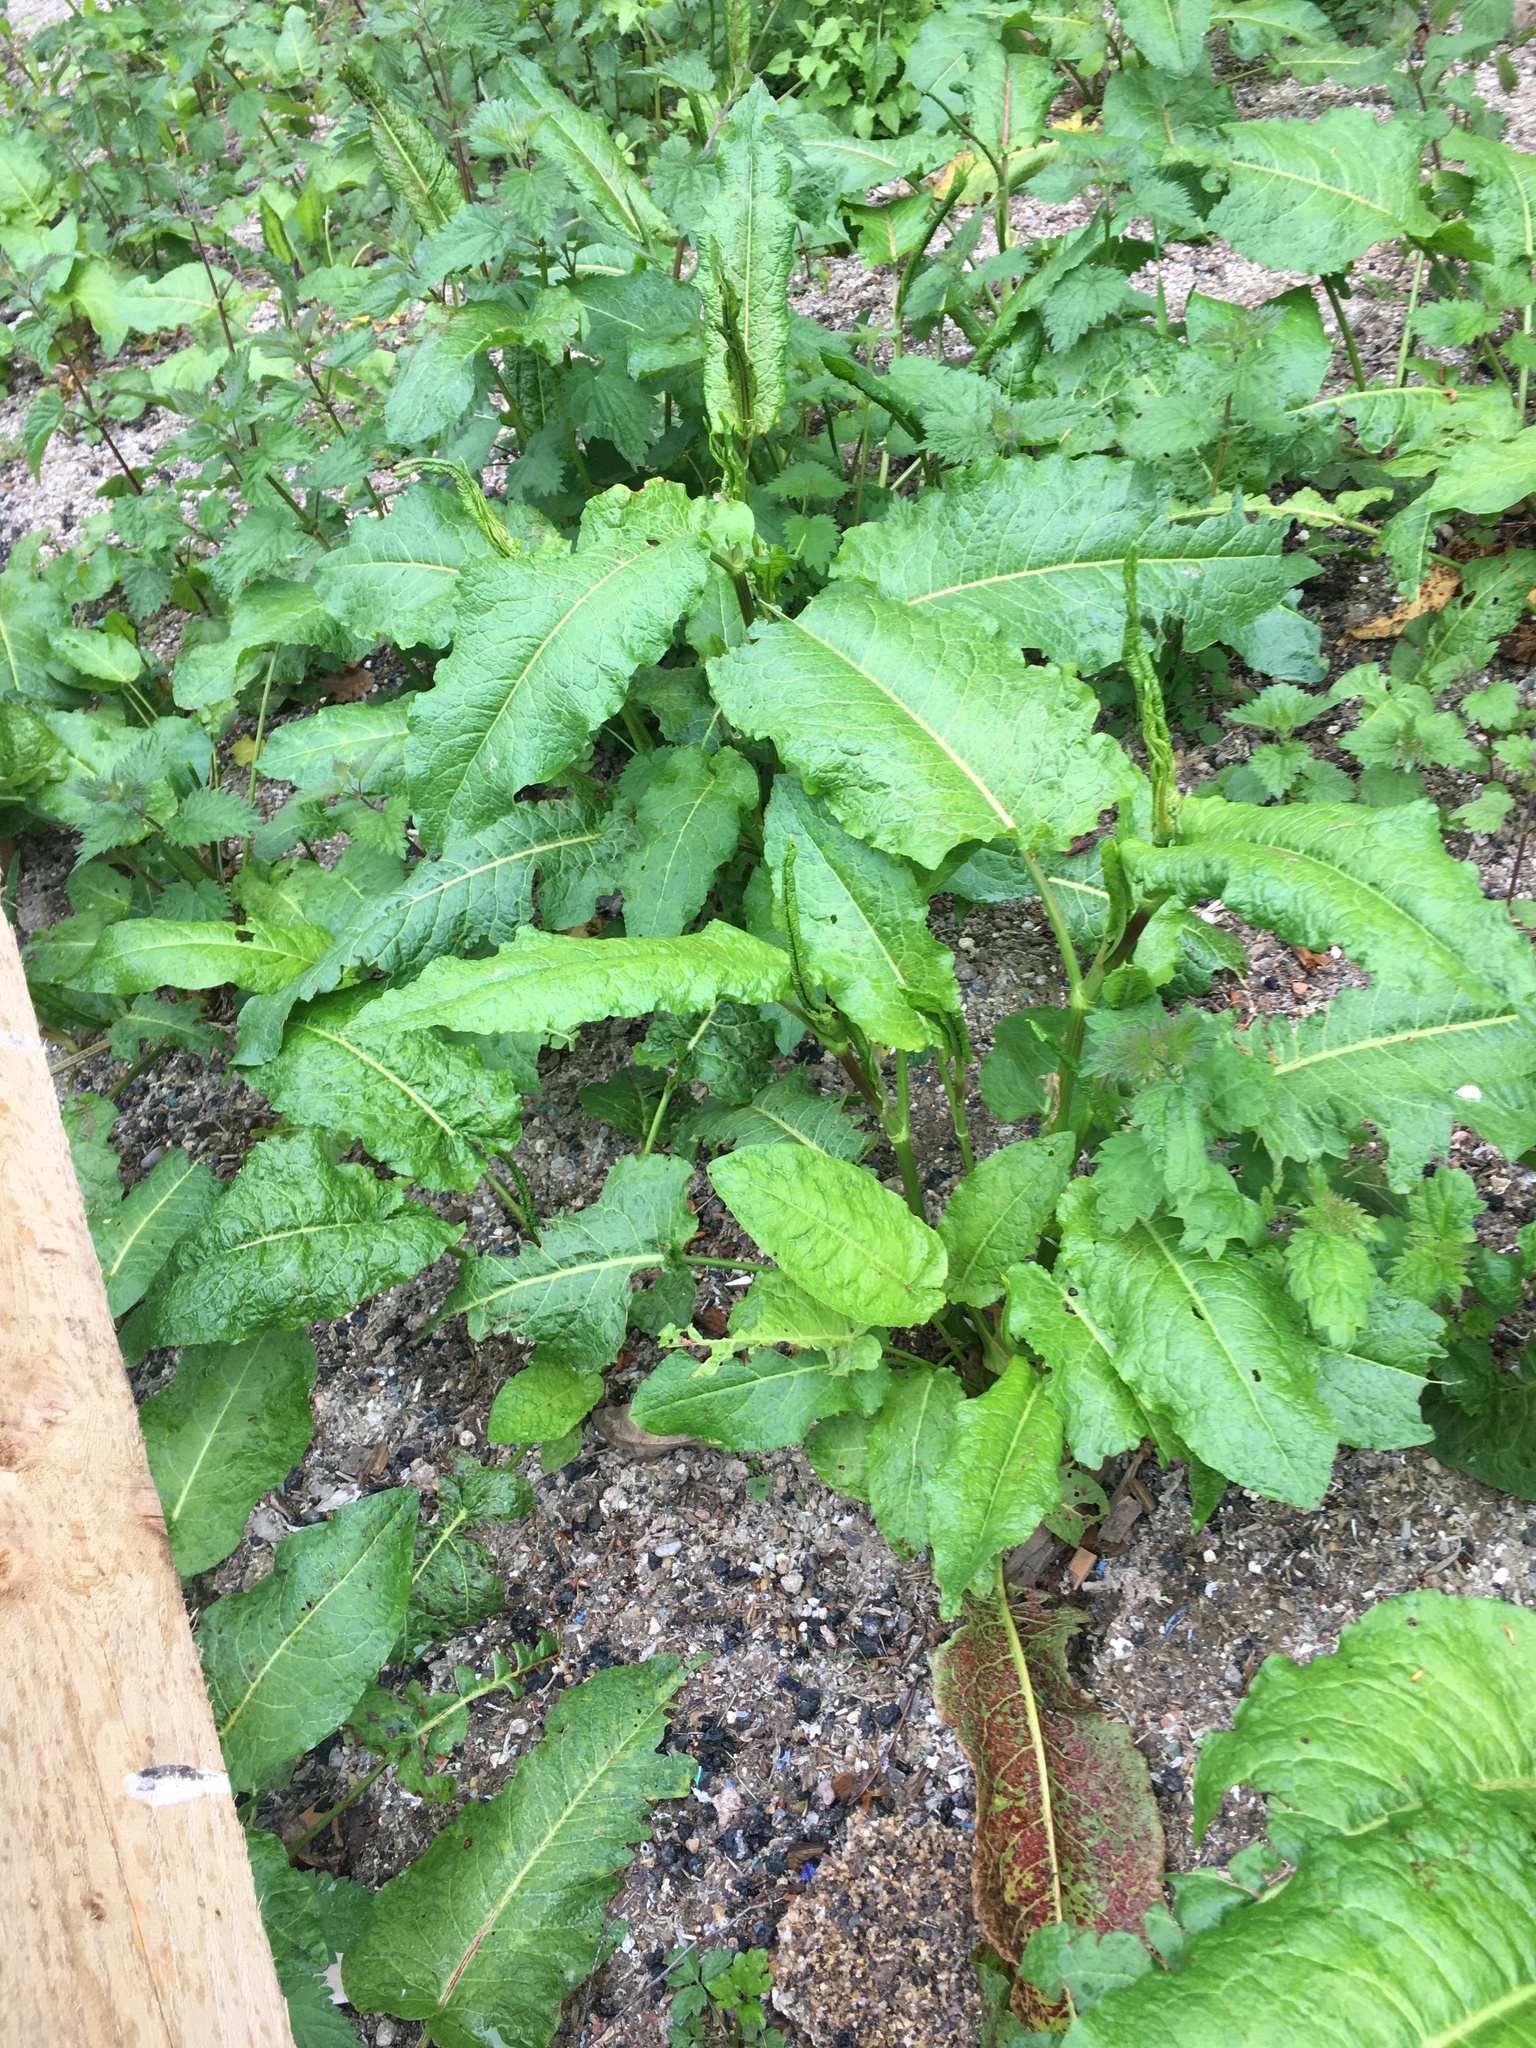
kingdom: Plantae
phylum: Tracheophyta
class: Magnoliopsida
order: Caryophyllales
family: Polygonaceae
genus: Rumex
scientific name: Rumex obtusifolius
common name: Bitter dock
